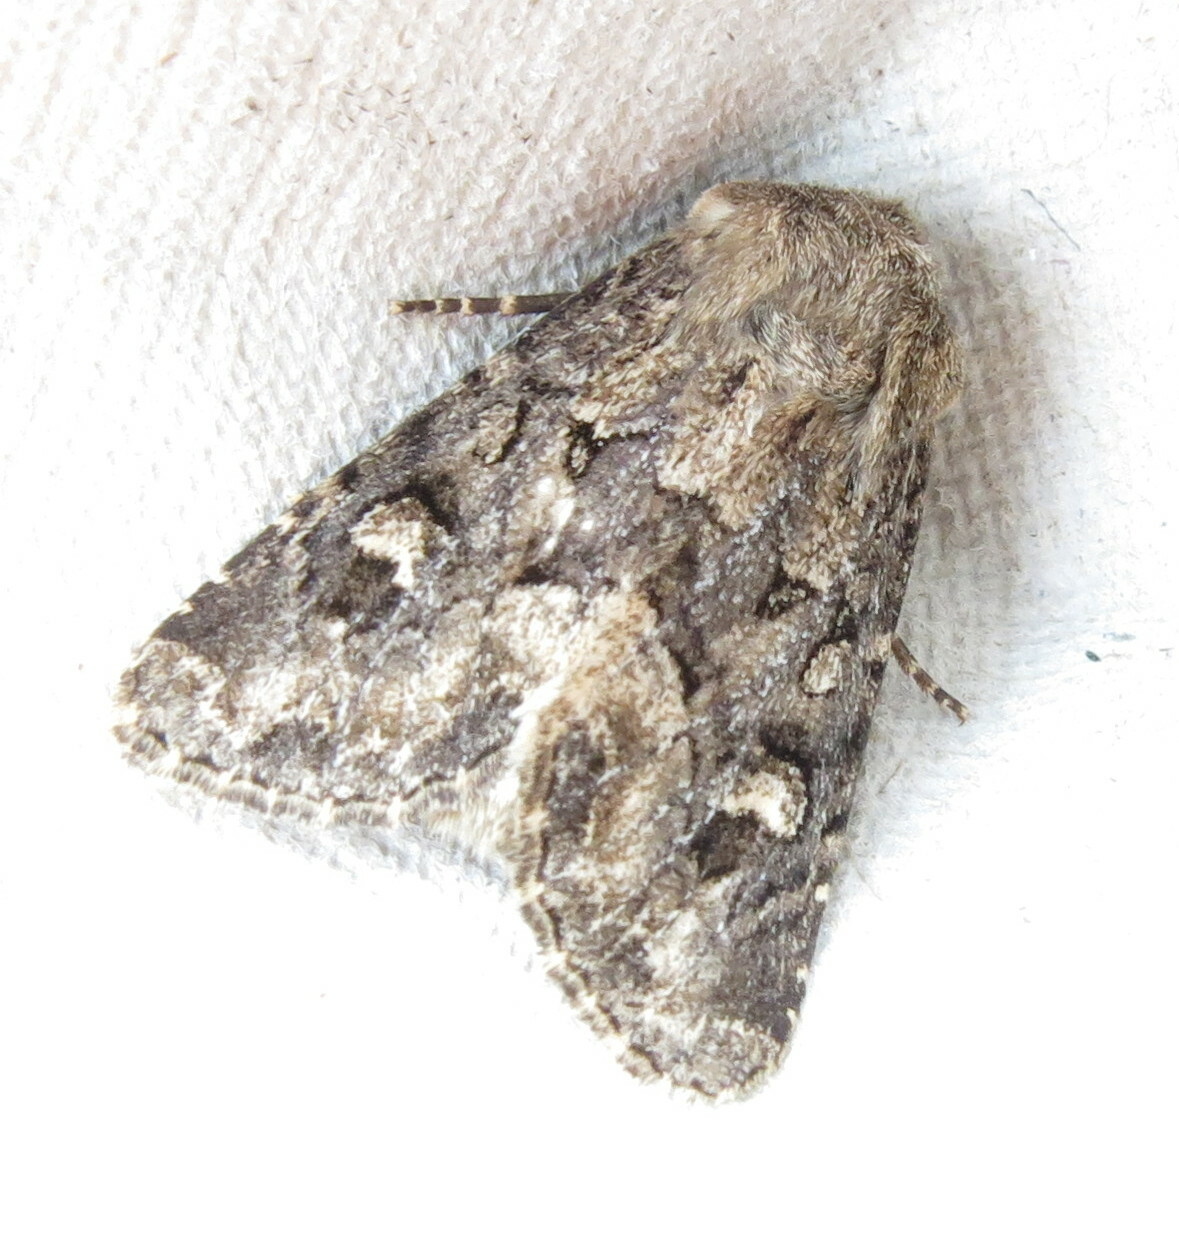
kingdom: Animalia
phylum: Arthropoda
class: Insecta
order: Lepidoptera
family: Noctuidae
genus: Luperina
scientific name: Luperina testacea
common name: Flounced rustic
